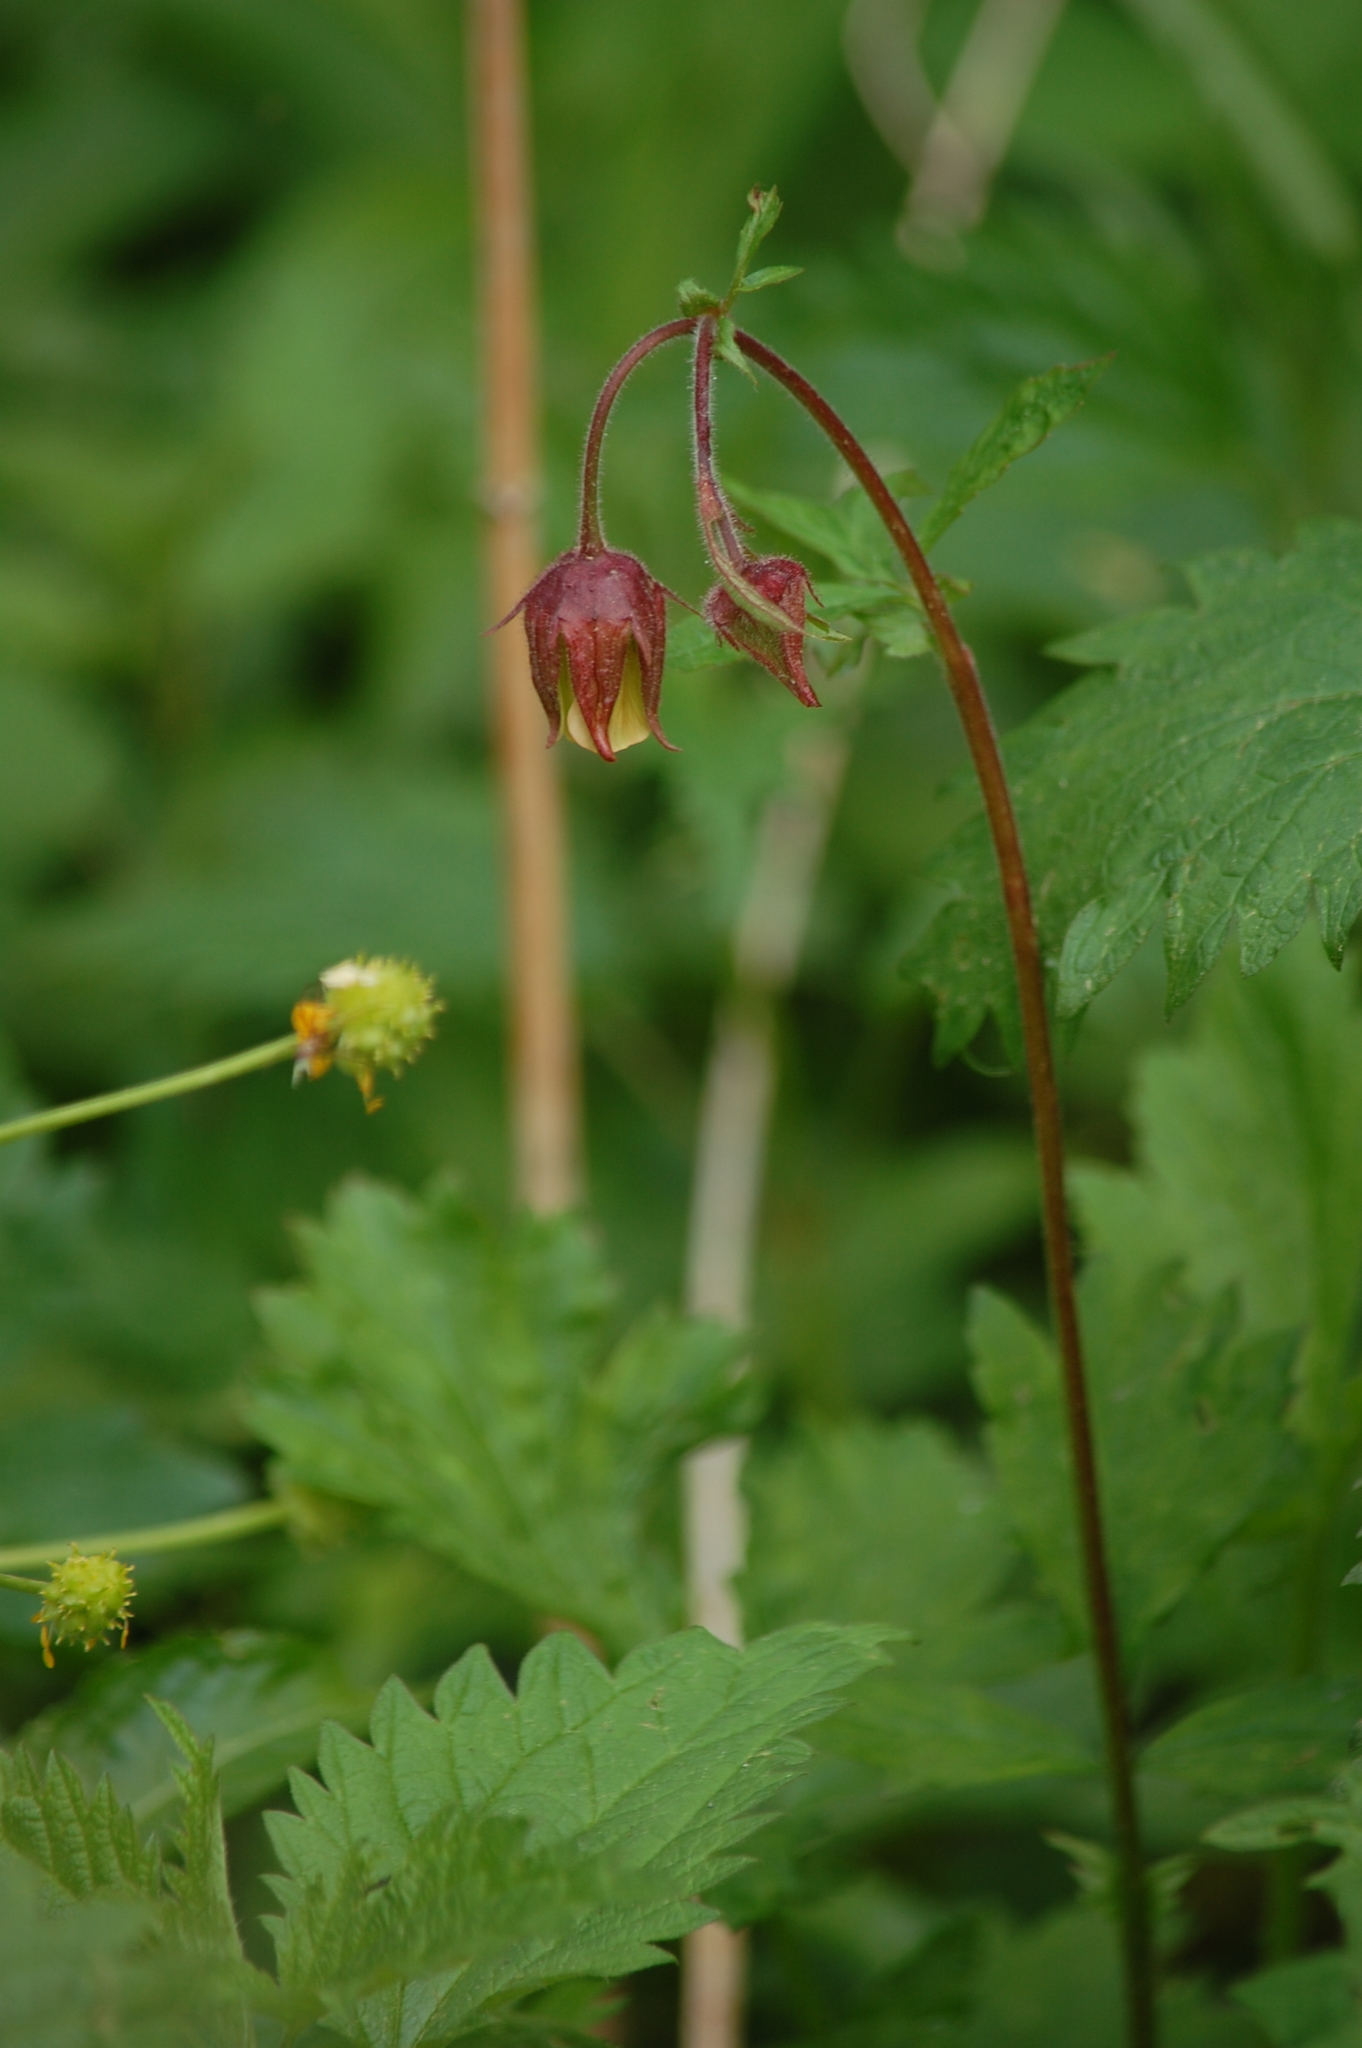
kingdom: Plantae
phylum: Tracheophyta
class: Magnoliopsida
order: Rosales
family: Rosaceae
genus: Geum
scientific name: Geum rivale
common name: Water avens
